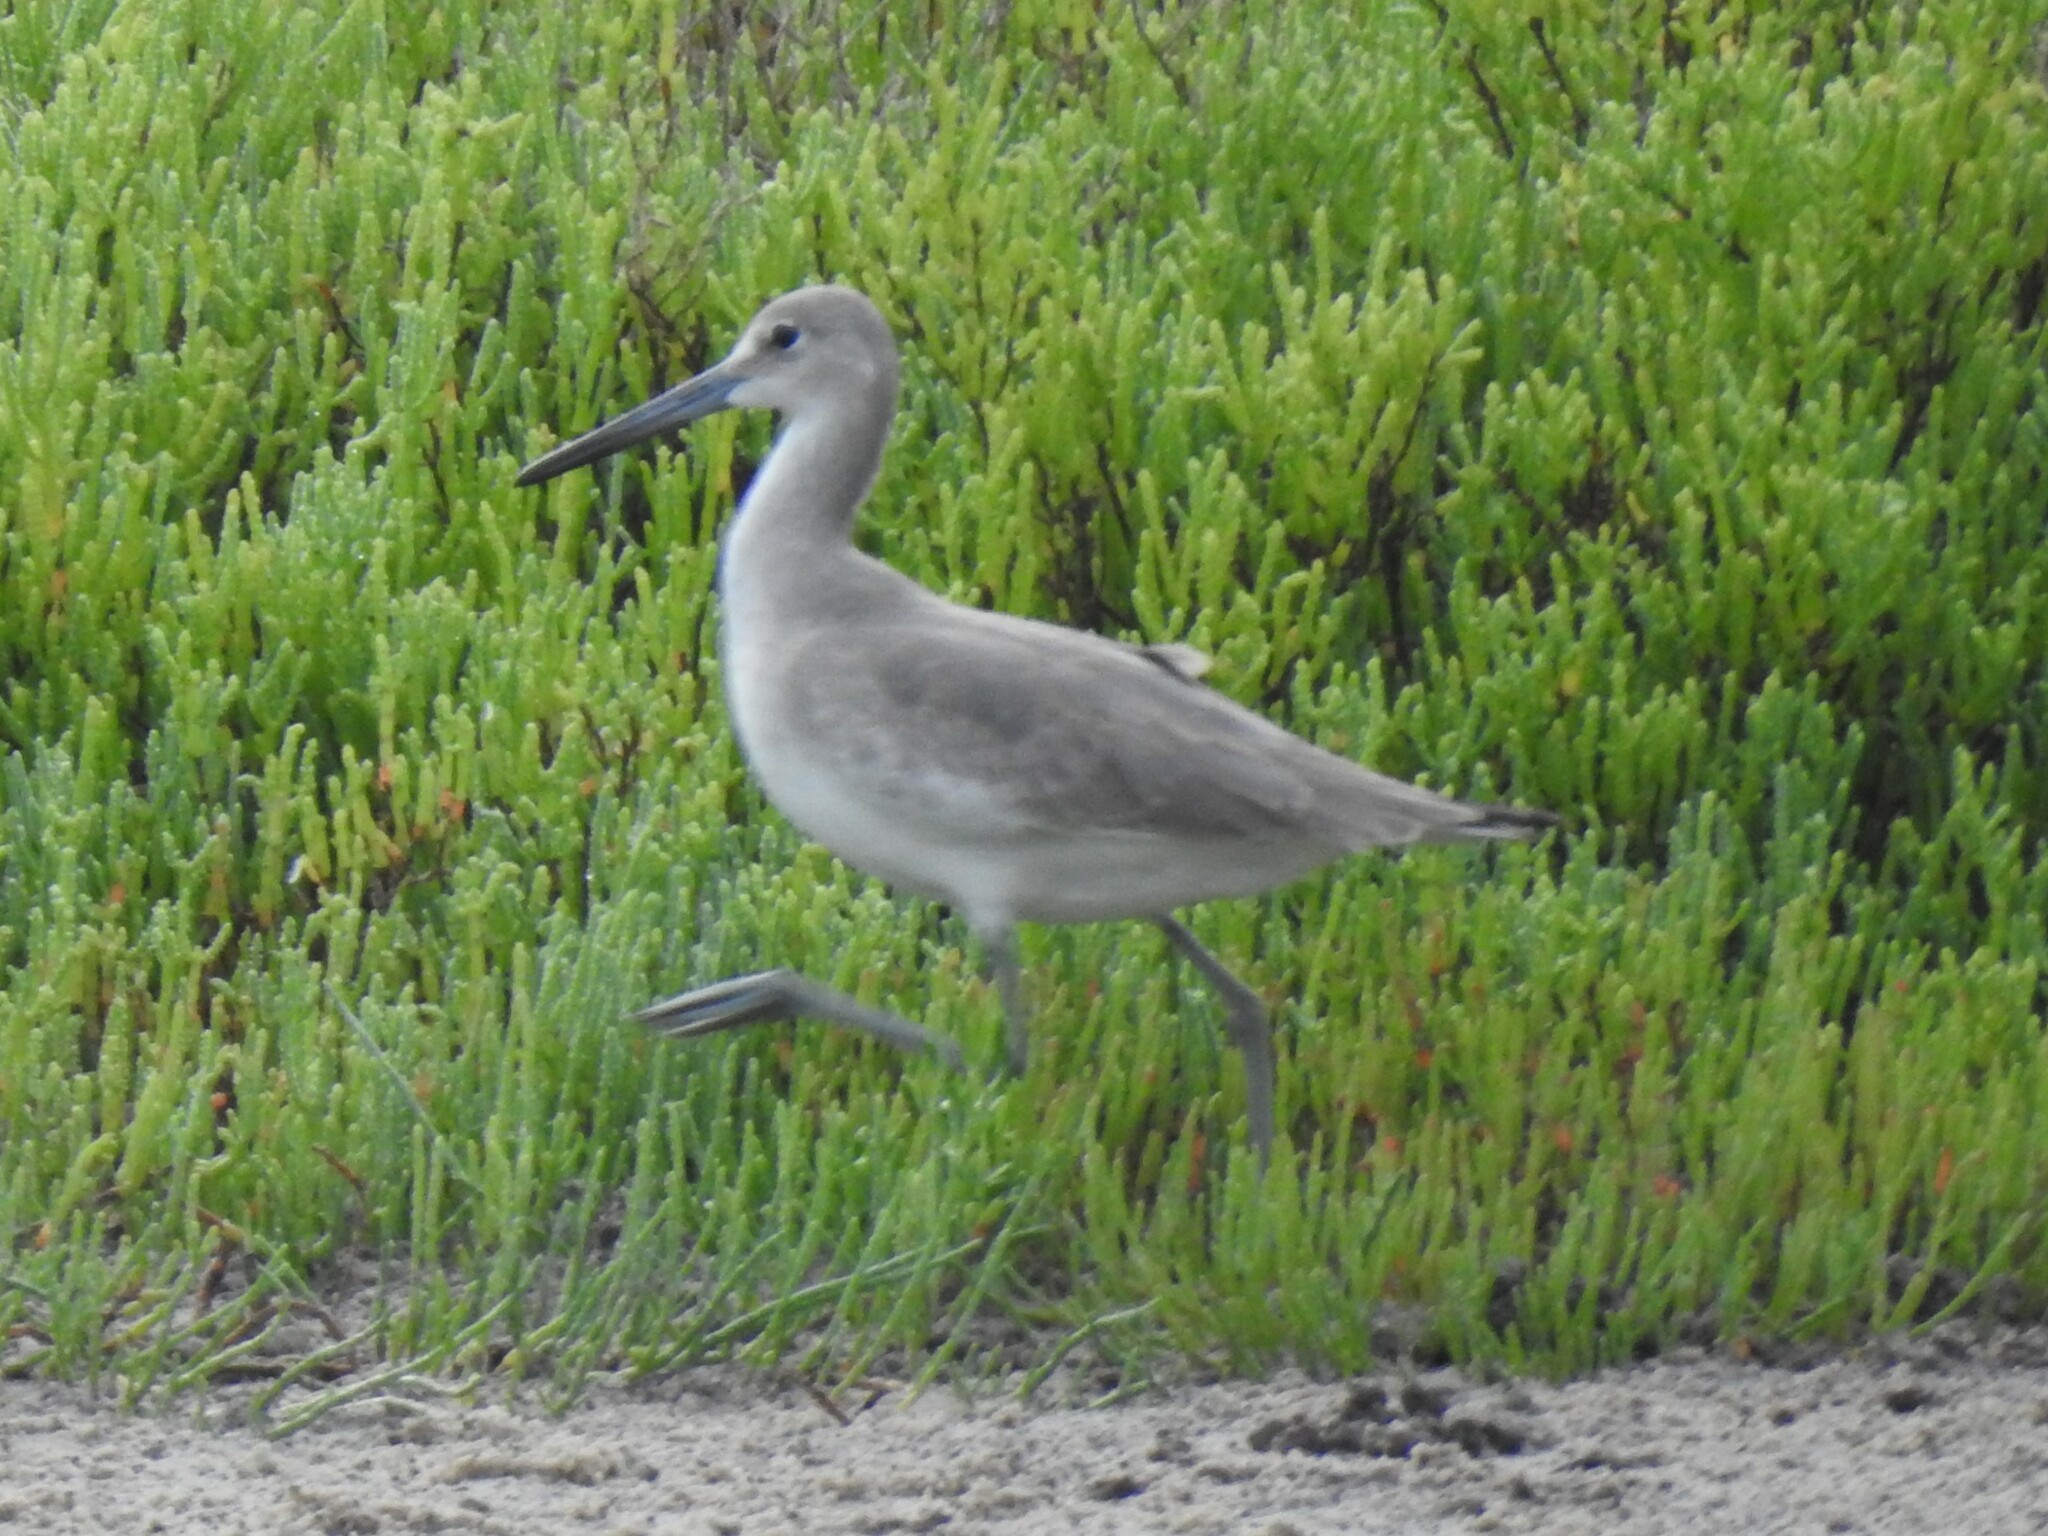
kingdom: Animalia
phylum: Chordata
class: Aves
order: Charadriiformes
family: Scolopacidae
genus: Tringa
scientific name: Tringa semipalmata
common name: Willet
